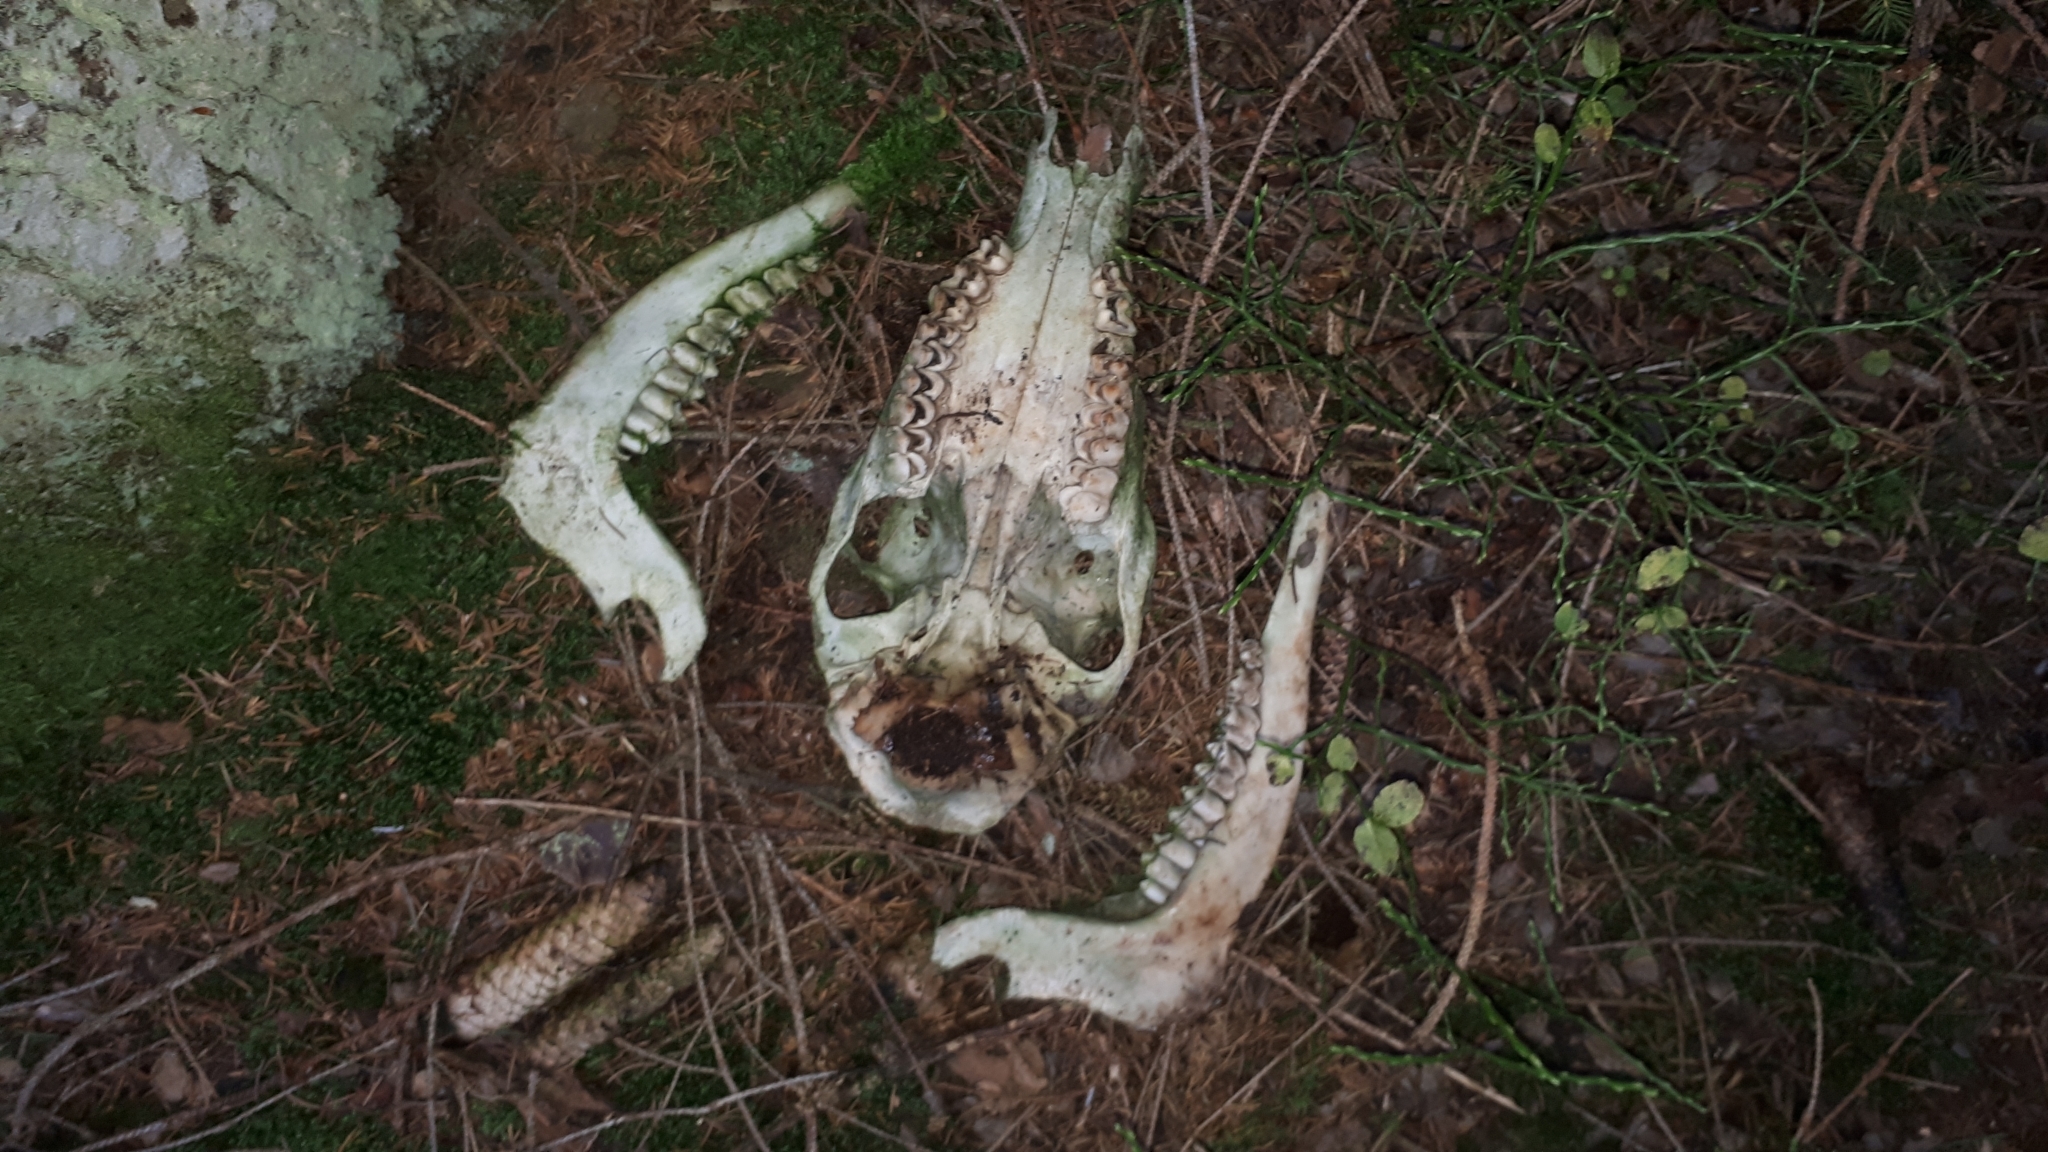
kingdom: Animalia
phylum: Chordata
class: Mammalia
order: Artiodactyla
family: Cervidae
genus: Cervus
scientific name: Cervus elaphus
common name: Red deer
